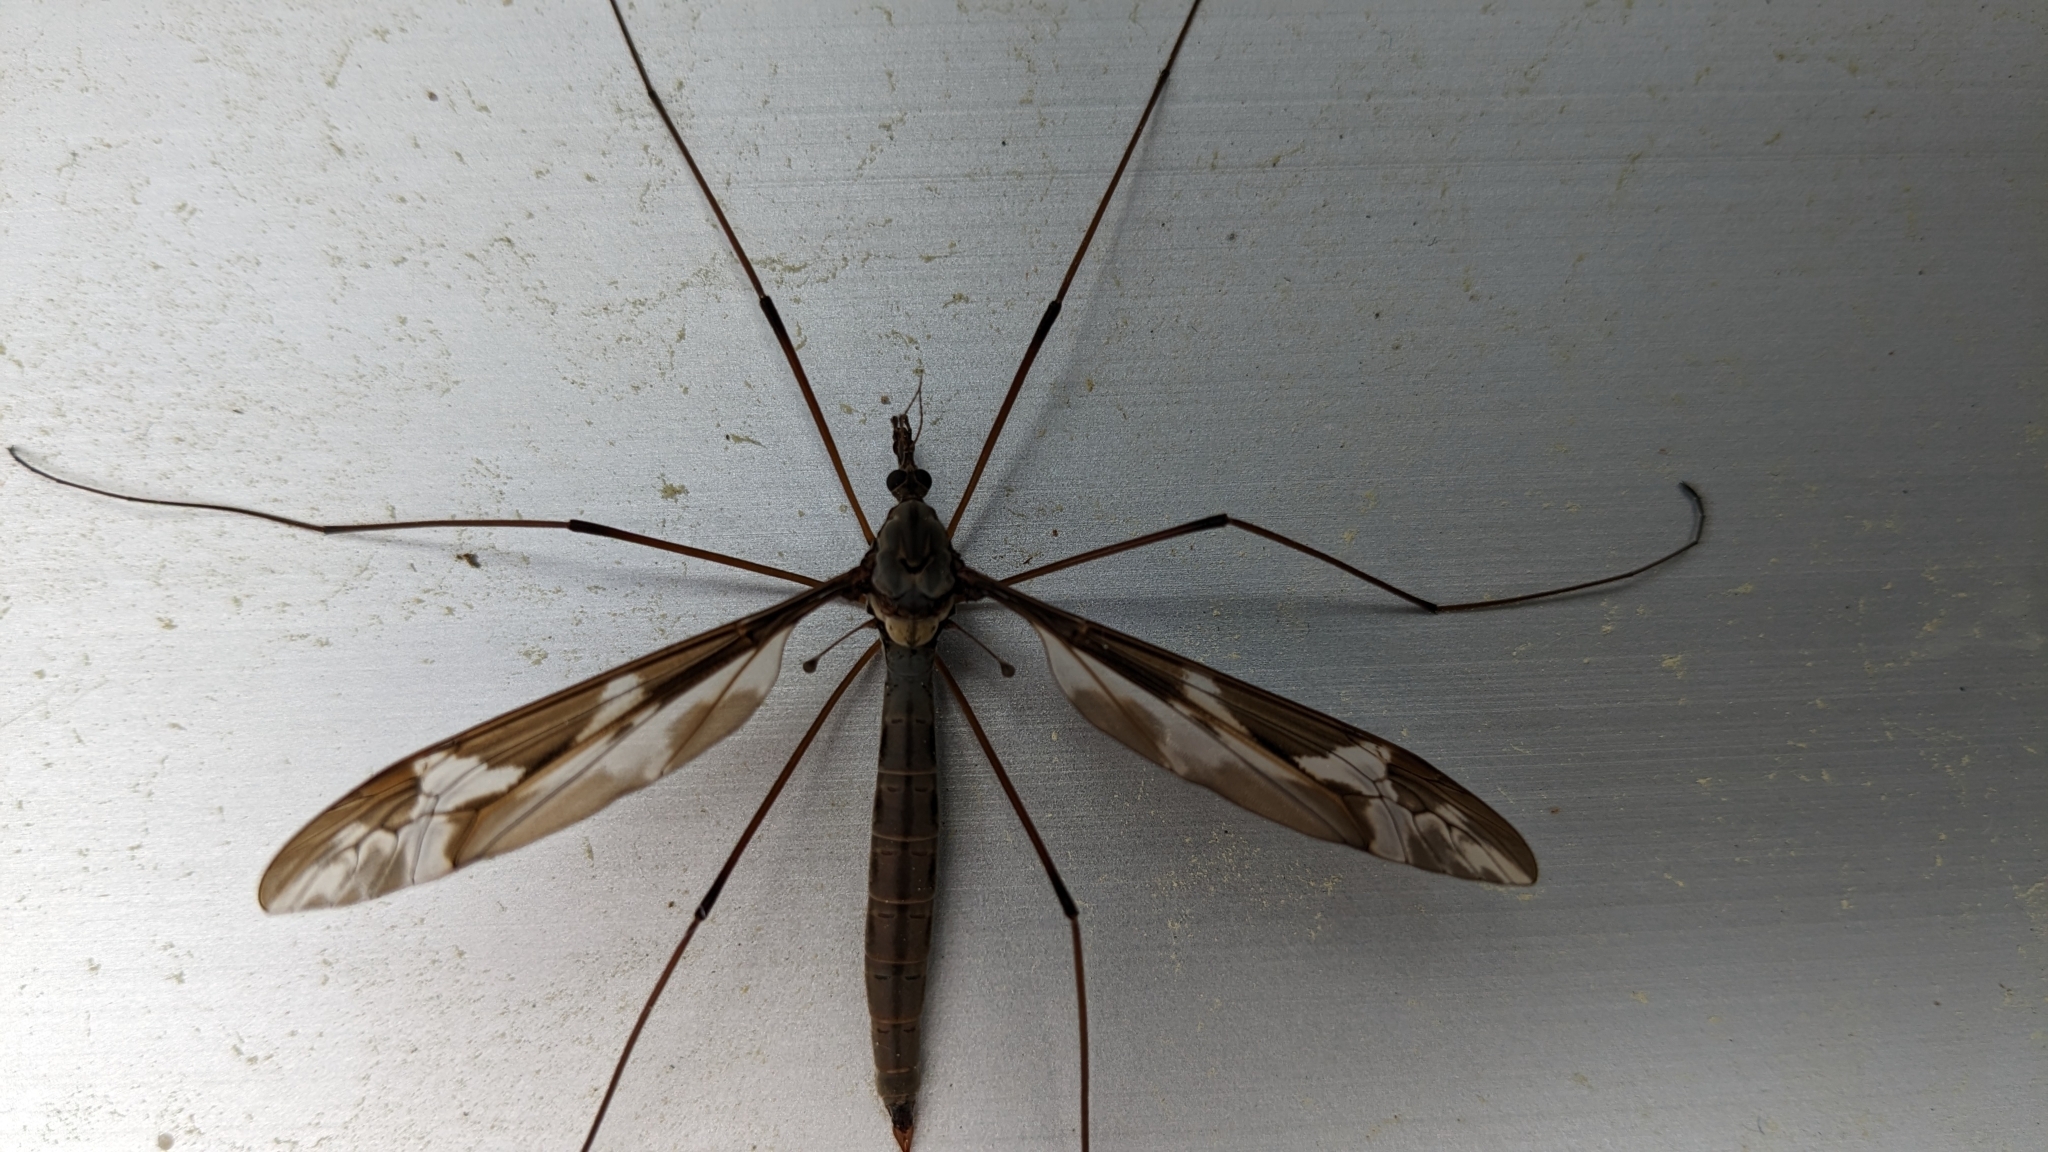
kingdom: Animalia
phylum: Arthropoda
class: Insecta
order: Diptera
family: Tipulidae
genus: Tipula
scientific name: Tipula maxima
